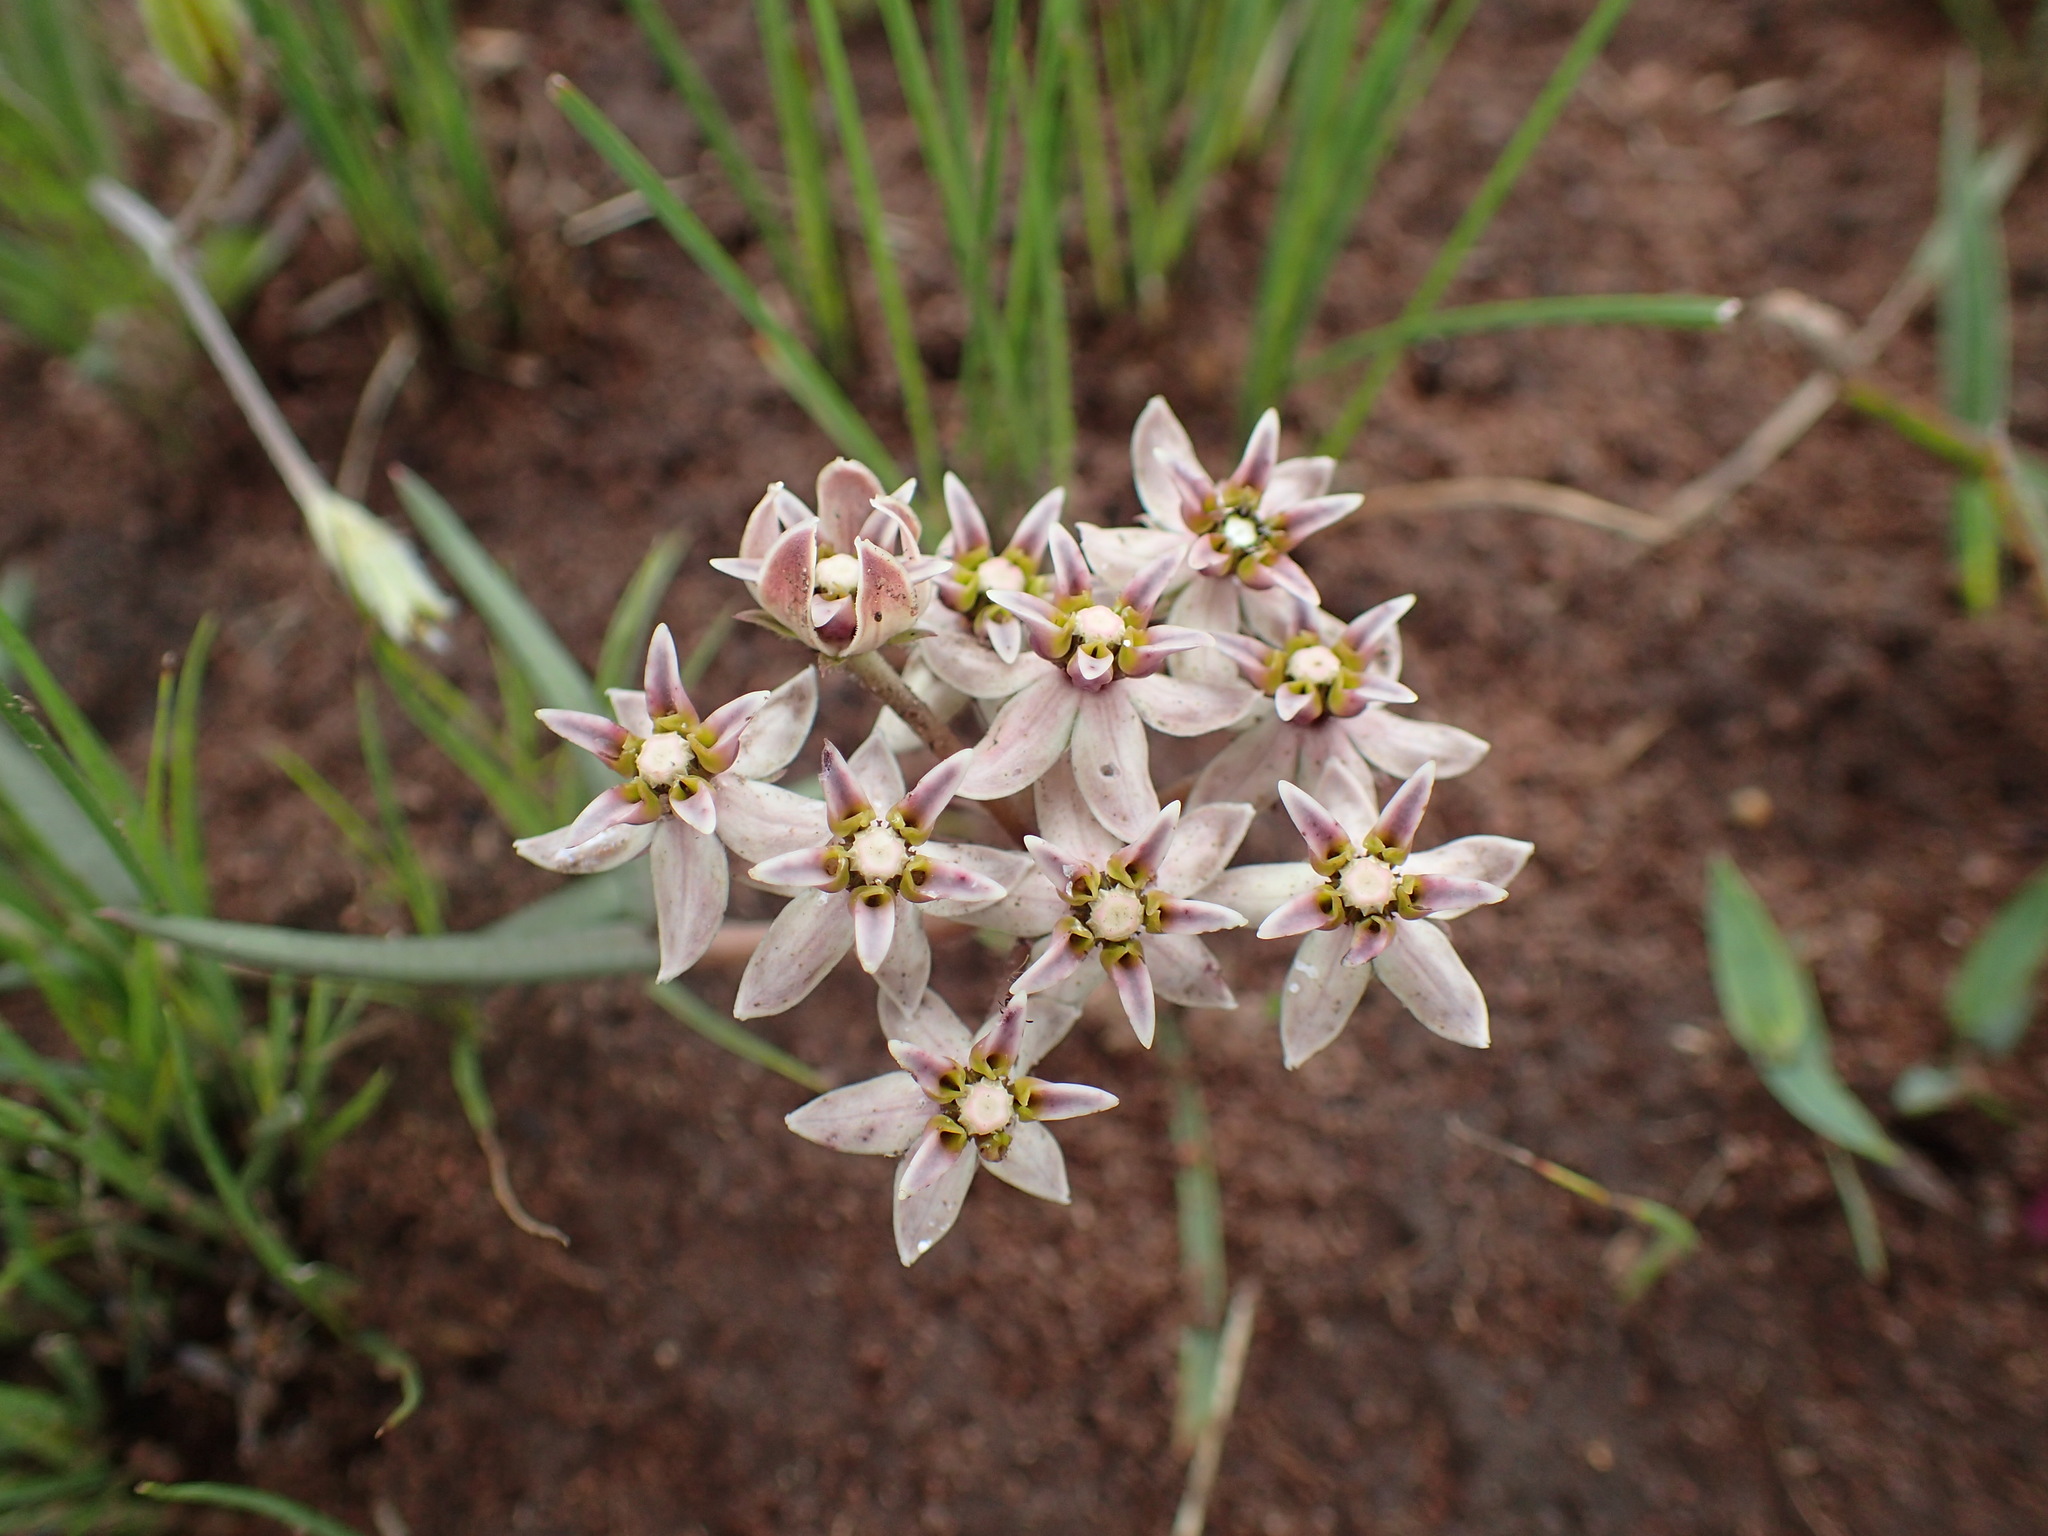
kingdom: Plantae
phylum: Tracheophyta
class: Magnoliopsida
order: Gentianales
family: Apocynaceae
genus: Asclepias
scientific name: Asclepias flexuosa
